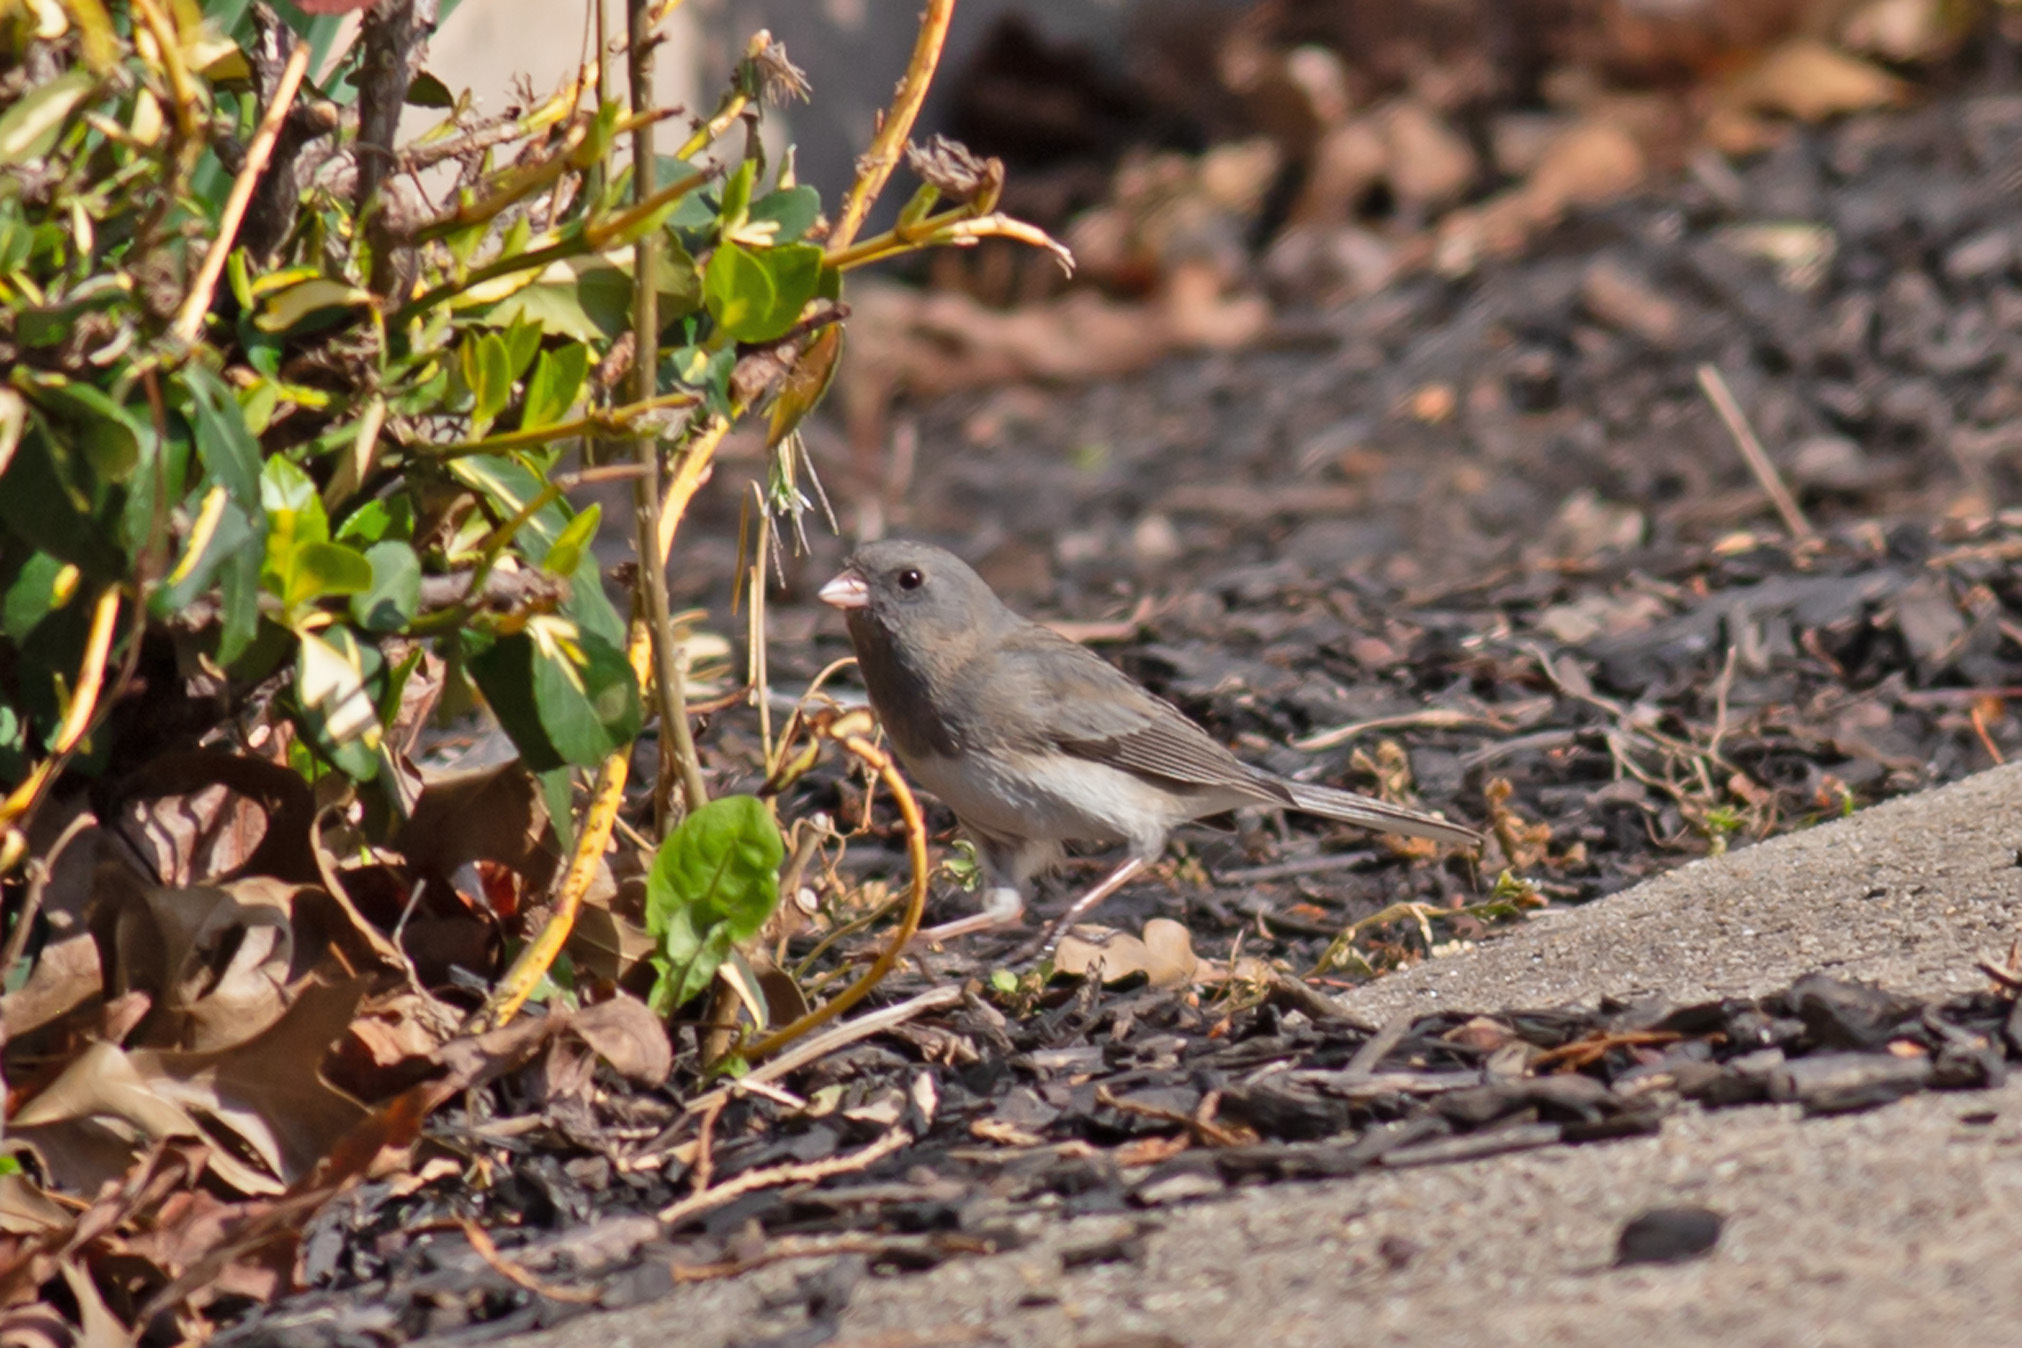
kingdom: Animalia
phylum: Chordata
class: Aves
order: Passeriformes
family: Passerellidae
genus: Junco
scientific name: Junco hyemalis
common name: Dark-eyed junco
